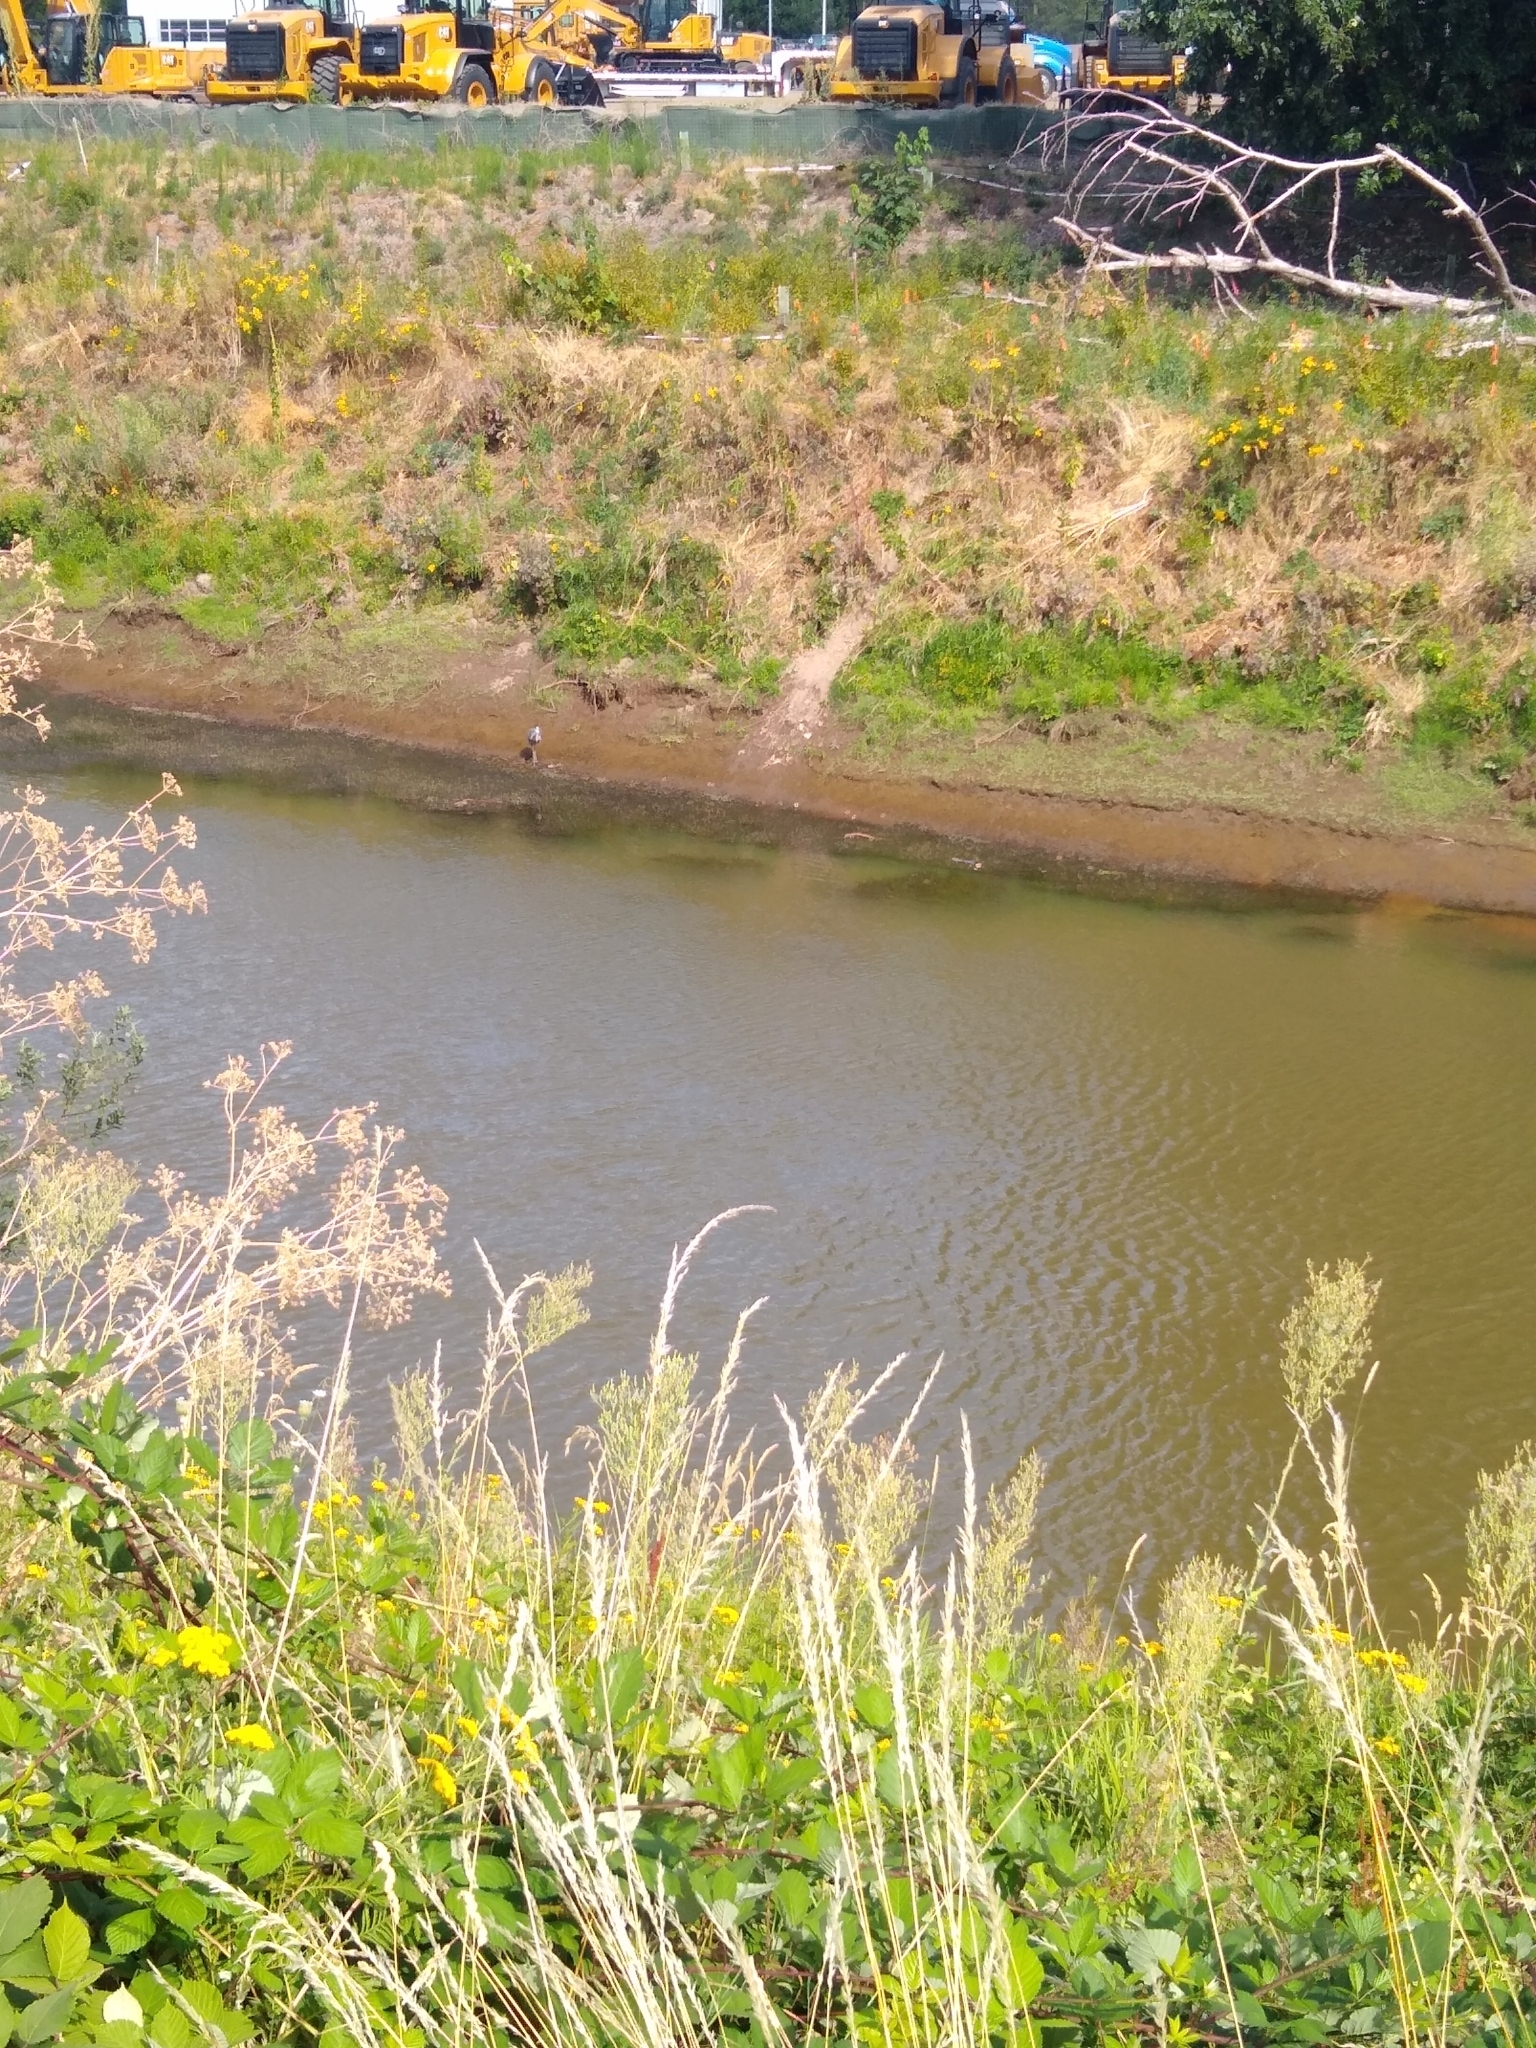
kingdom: Animalia
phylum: Chordata
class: Aves
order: Pelecaniformes
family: Ardeidae
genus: Ardea
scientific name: Ardea herodias
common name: Great blue heron
